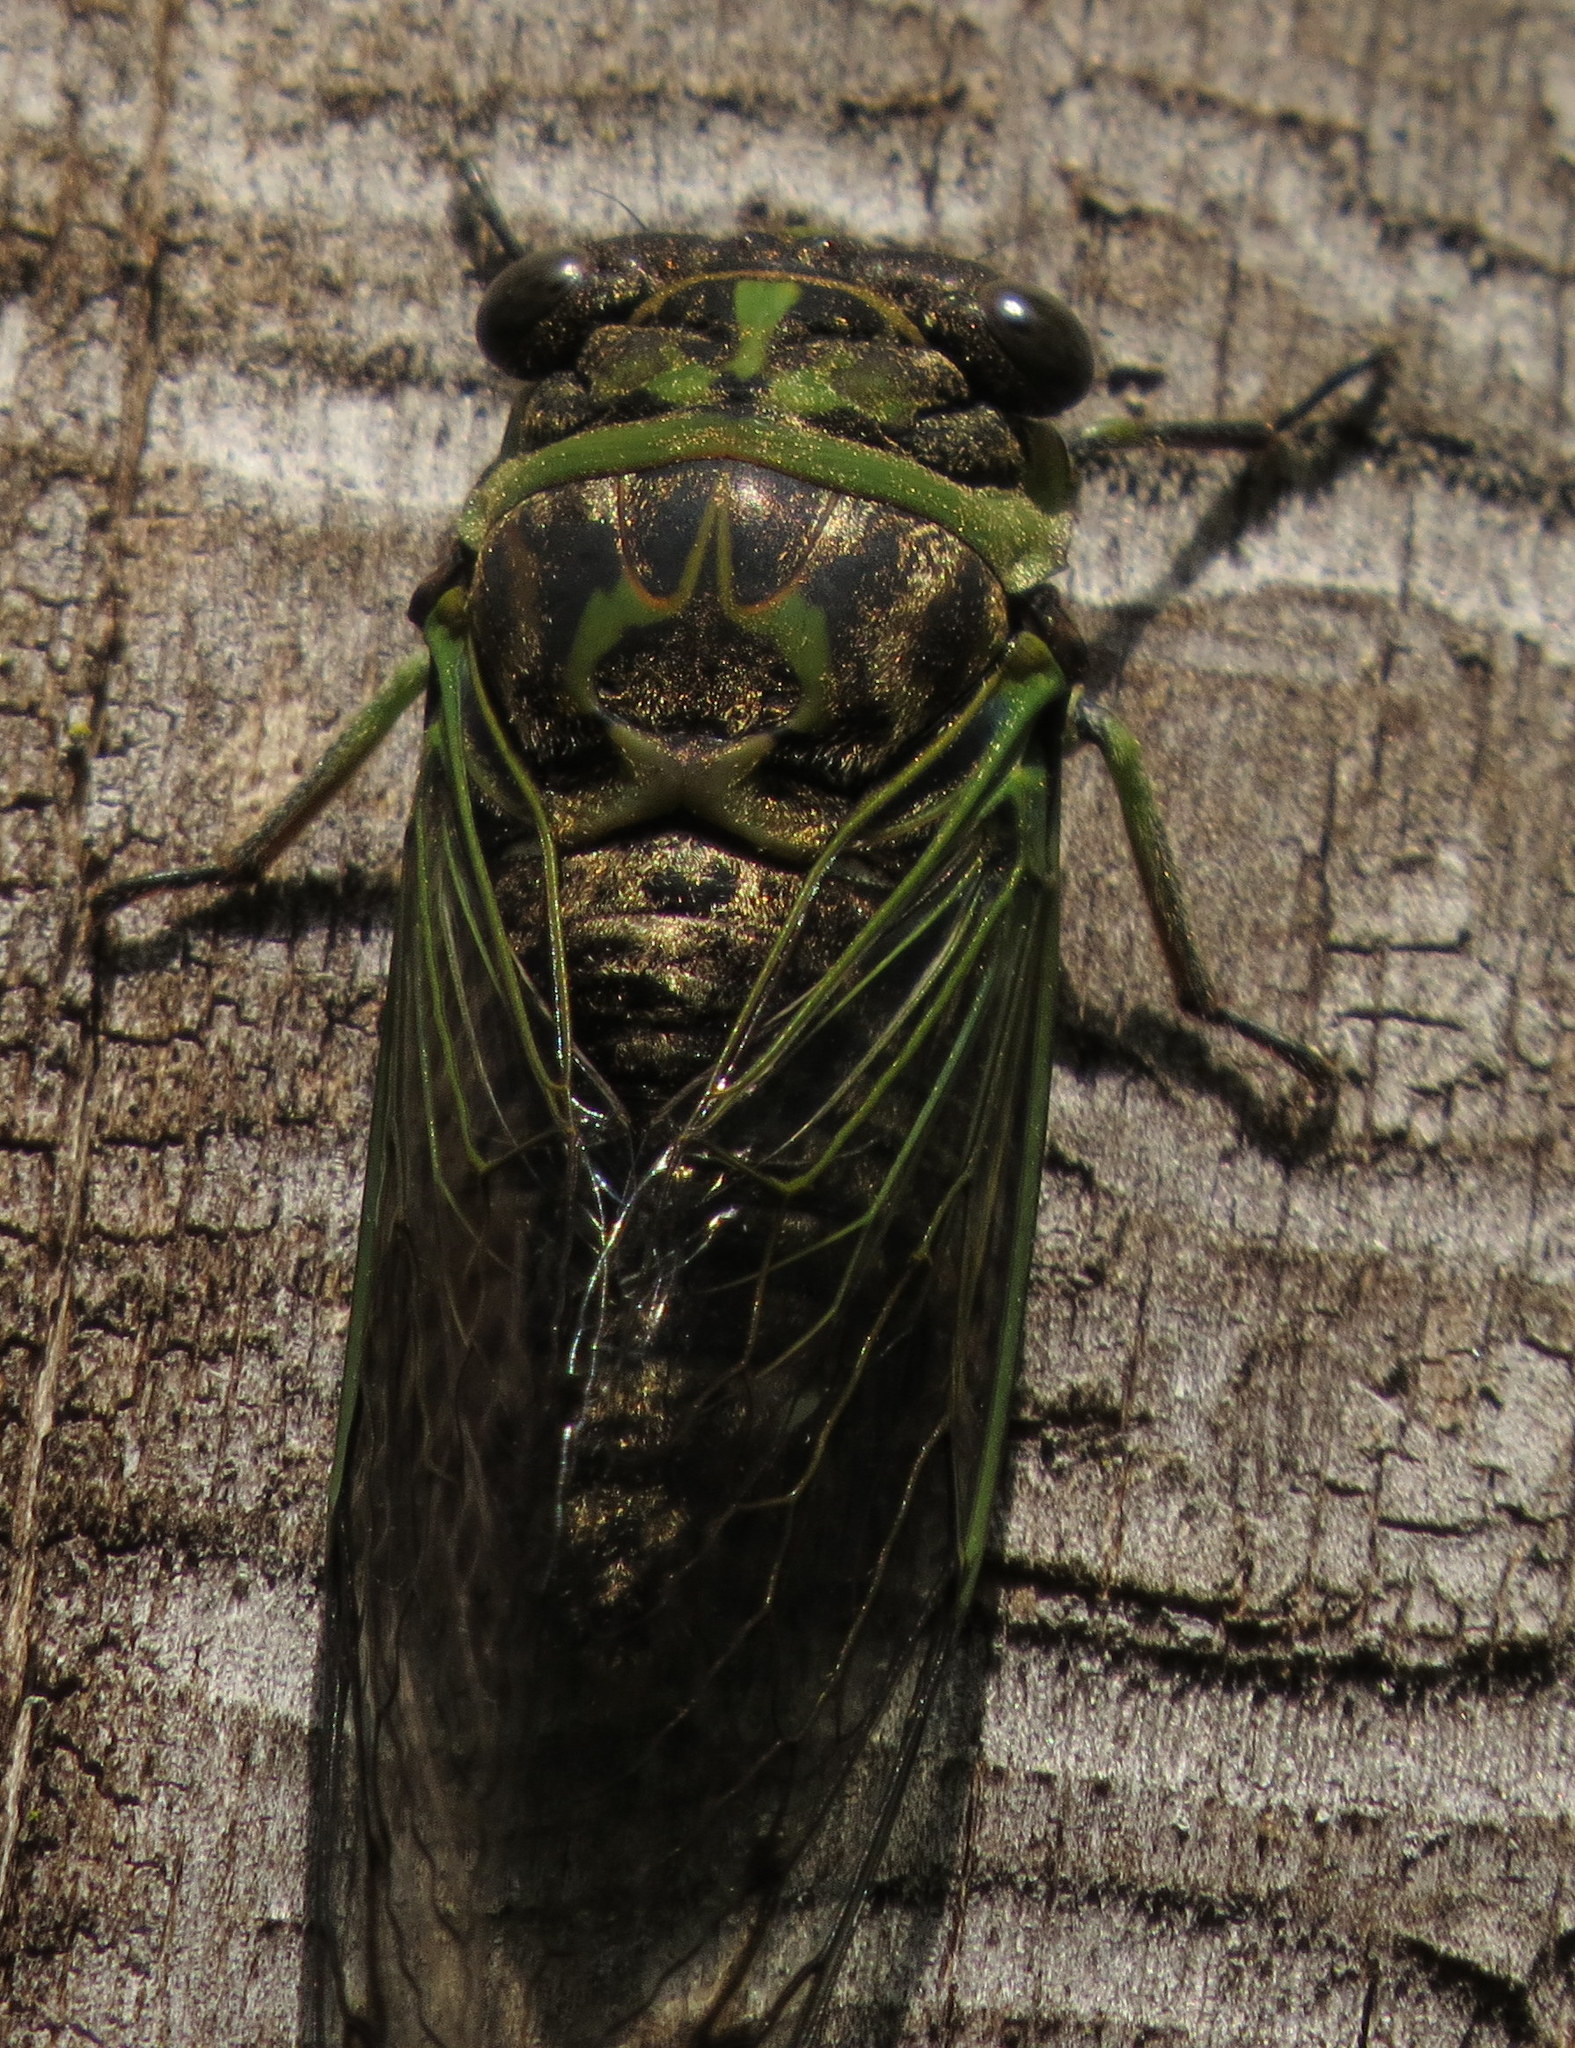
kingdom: Animalia
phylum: Arthropoda
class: Insecta
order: Hemiptera
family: Cicadidae
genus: Neotibicen
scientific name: Neotibicen canicularis
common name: God-day cicada
